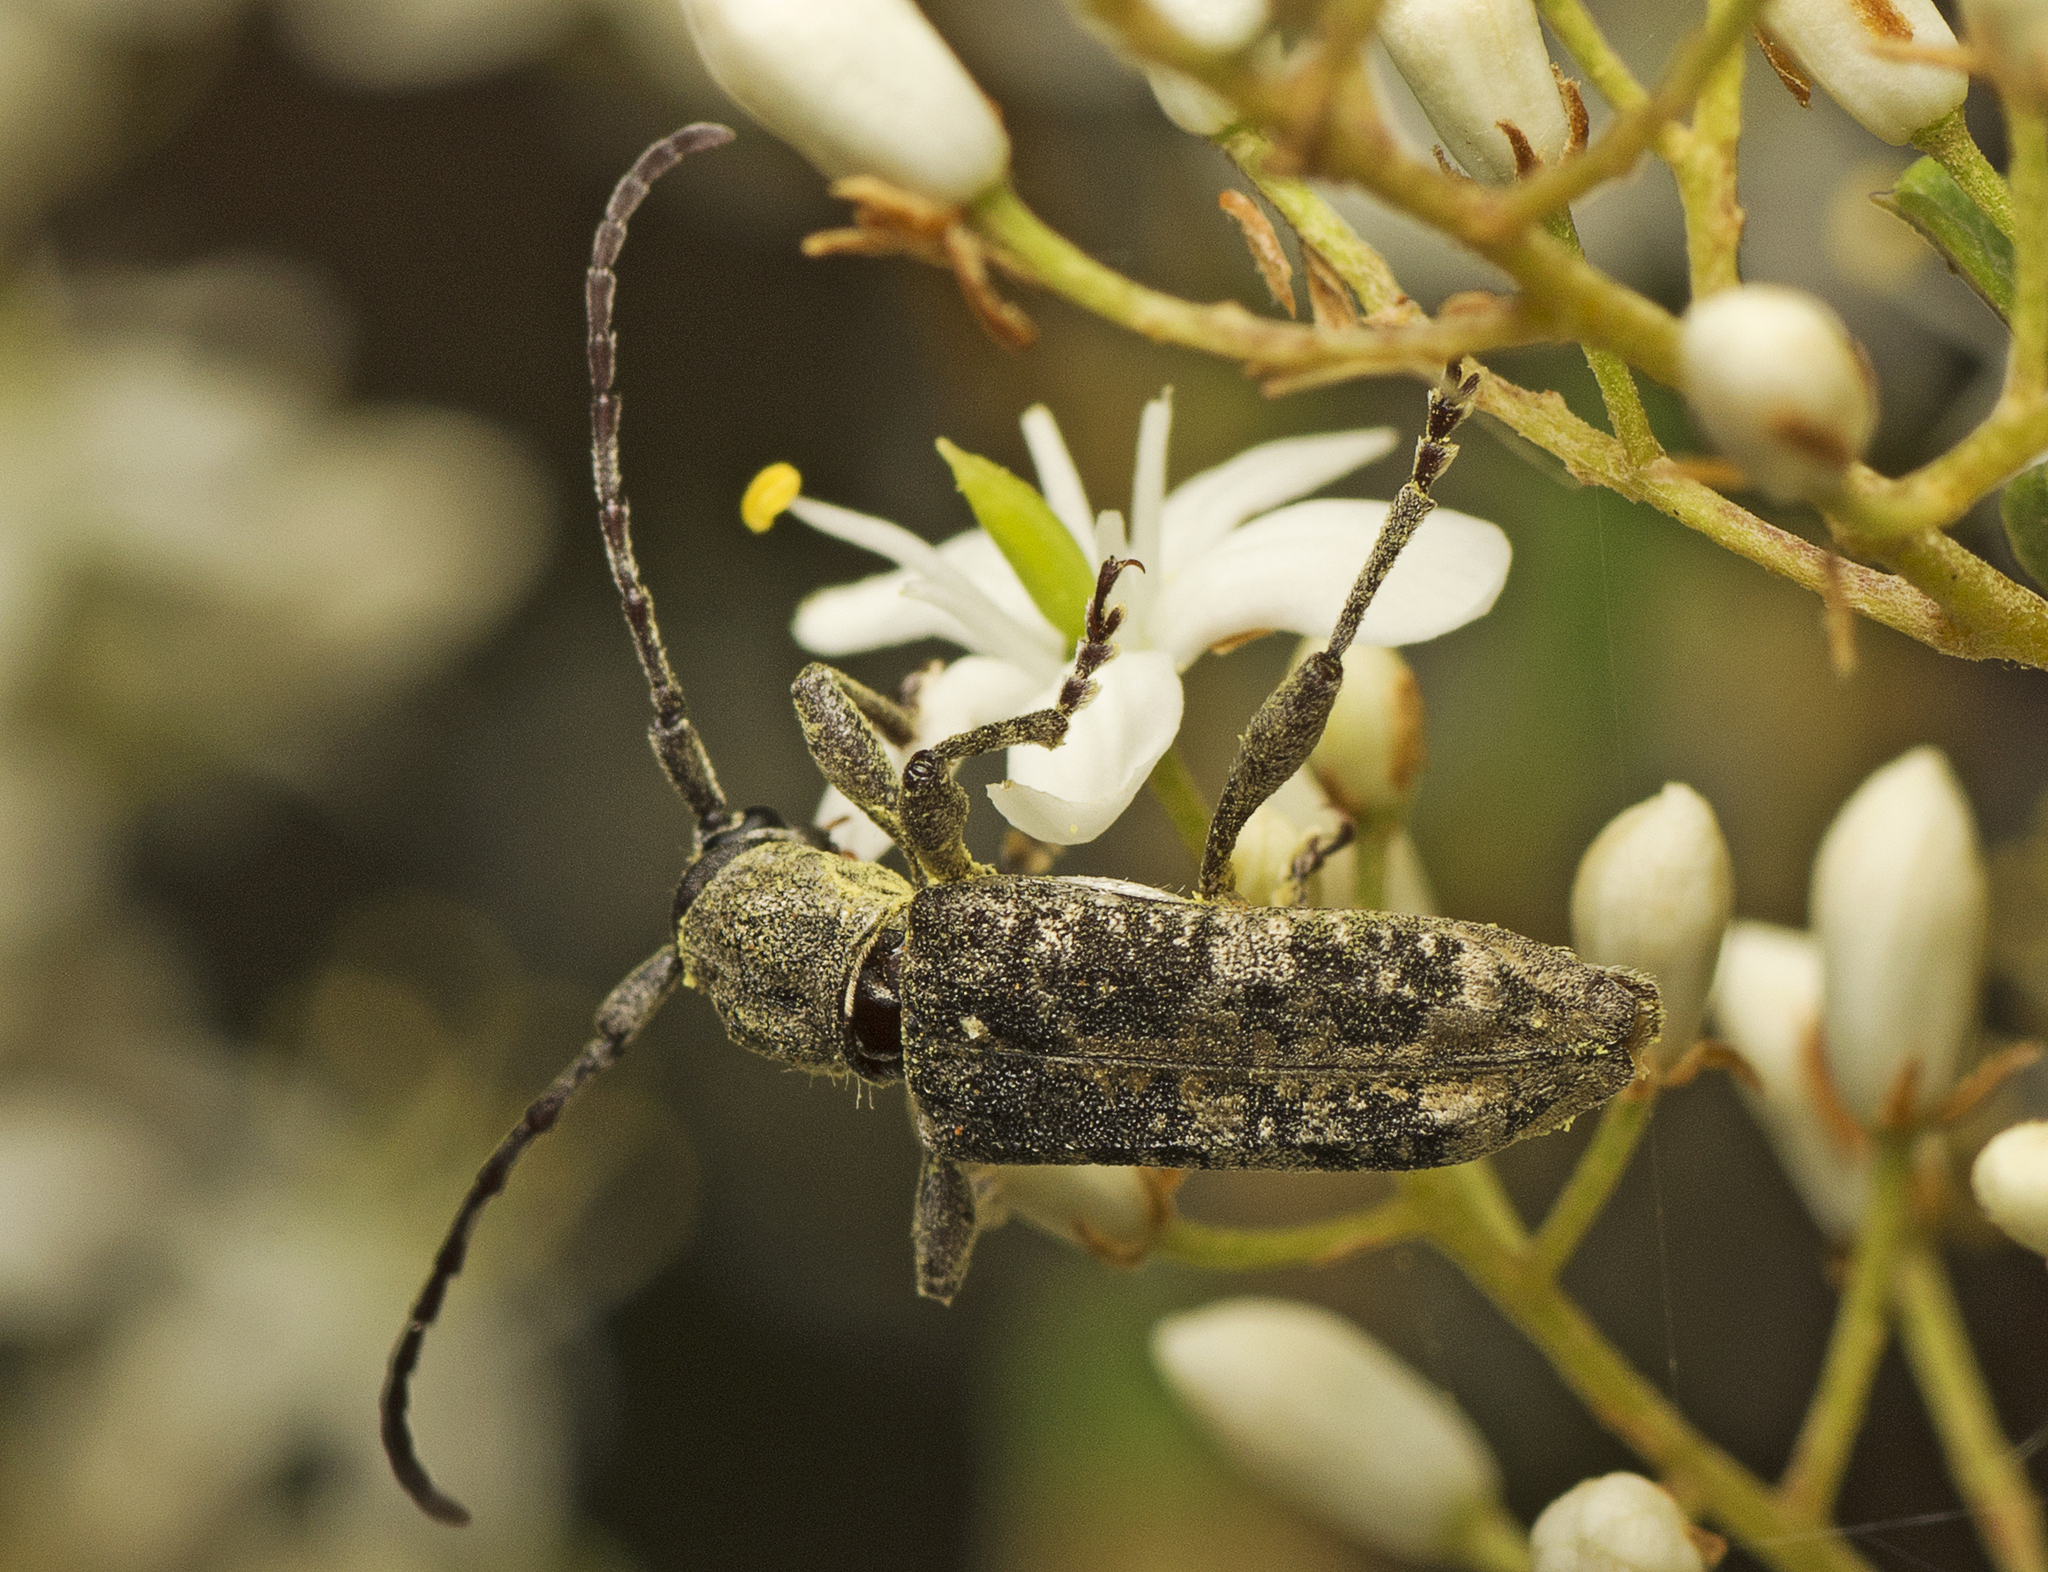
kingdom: Animalia
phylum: Arthropoda
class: Insecta
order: Coleoptera
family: Cerambycidae
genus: Pempsamacra
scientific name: Pempsamacra dispersa
